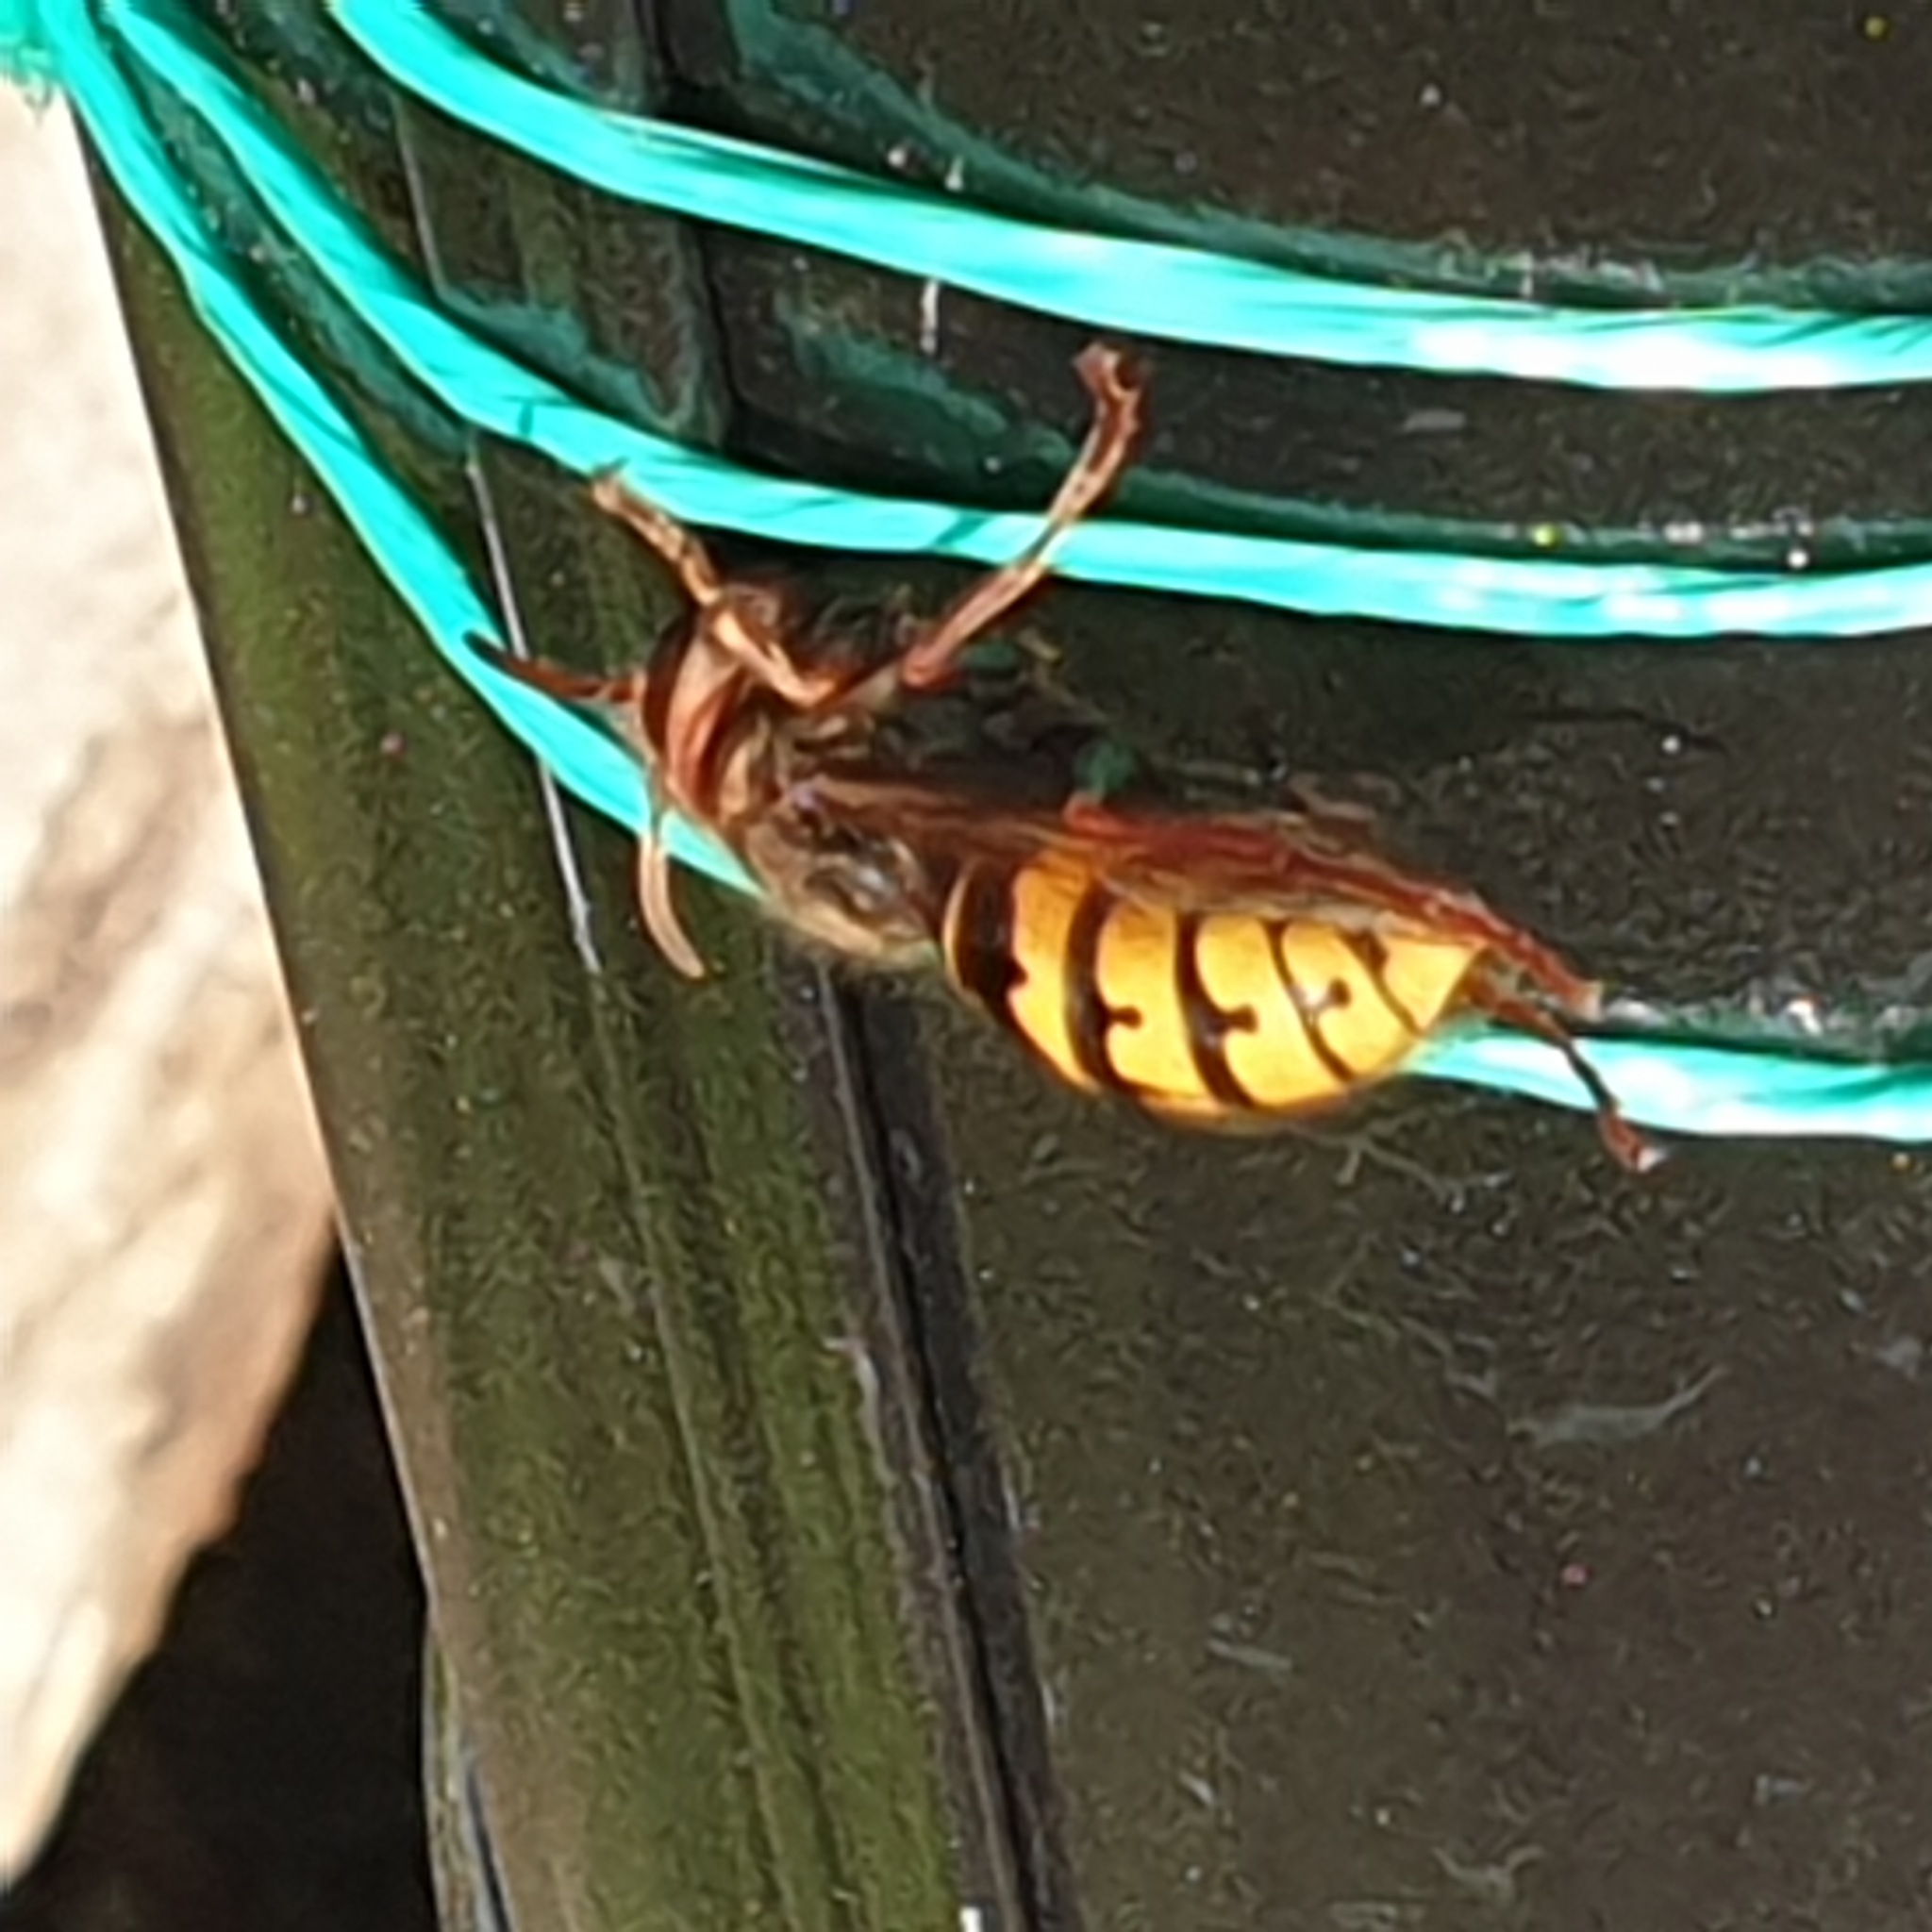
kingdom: Animalia
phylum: Arthropoda
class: Insecta
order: Hymenoptera
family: Vespidae
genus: Vespa
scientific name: Vespa crabro
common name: Hornet
